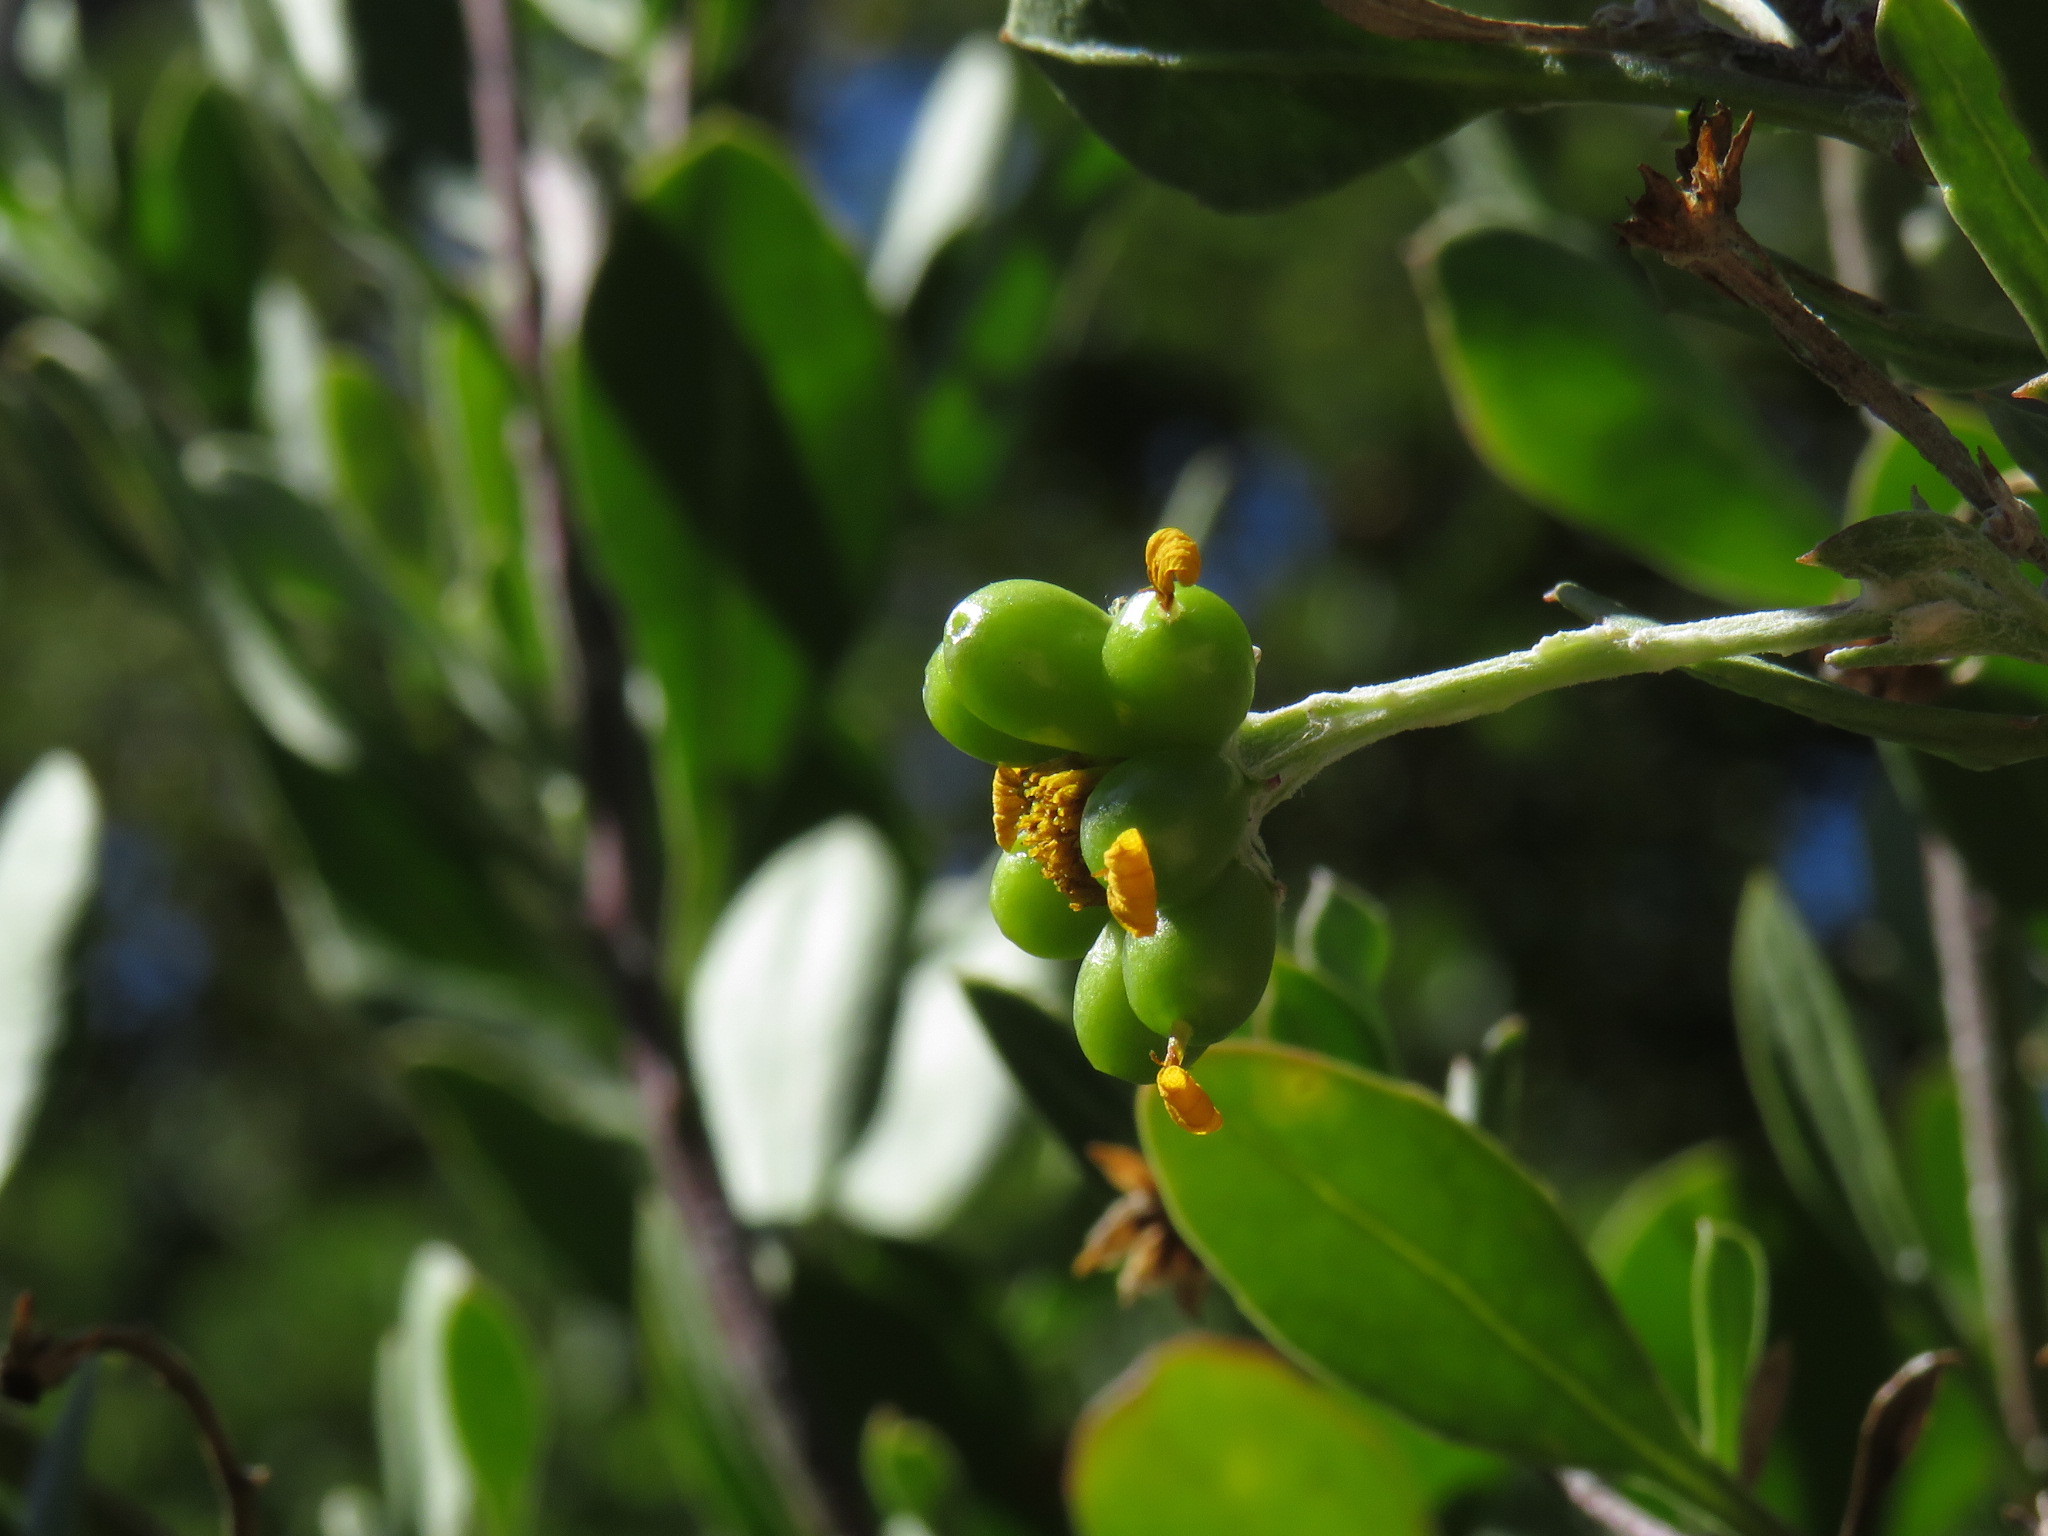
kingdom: Plantae
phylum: Tracheophyta
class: Magnoliopsida
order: Asterales
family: Asteraceae
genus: Osteospermum
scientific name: Osteospermum moniliferum
